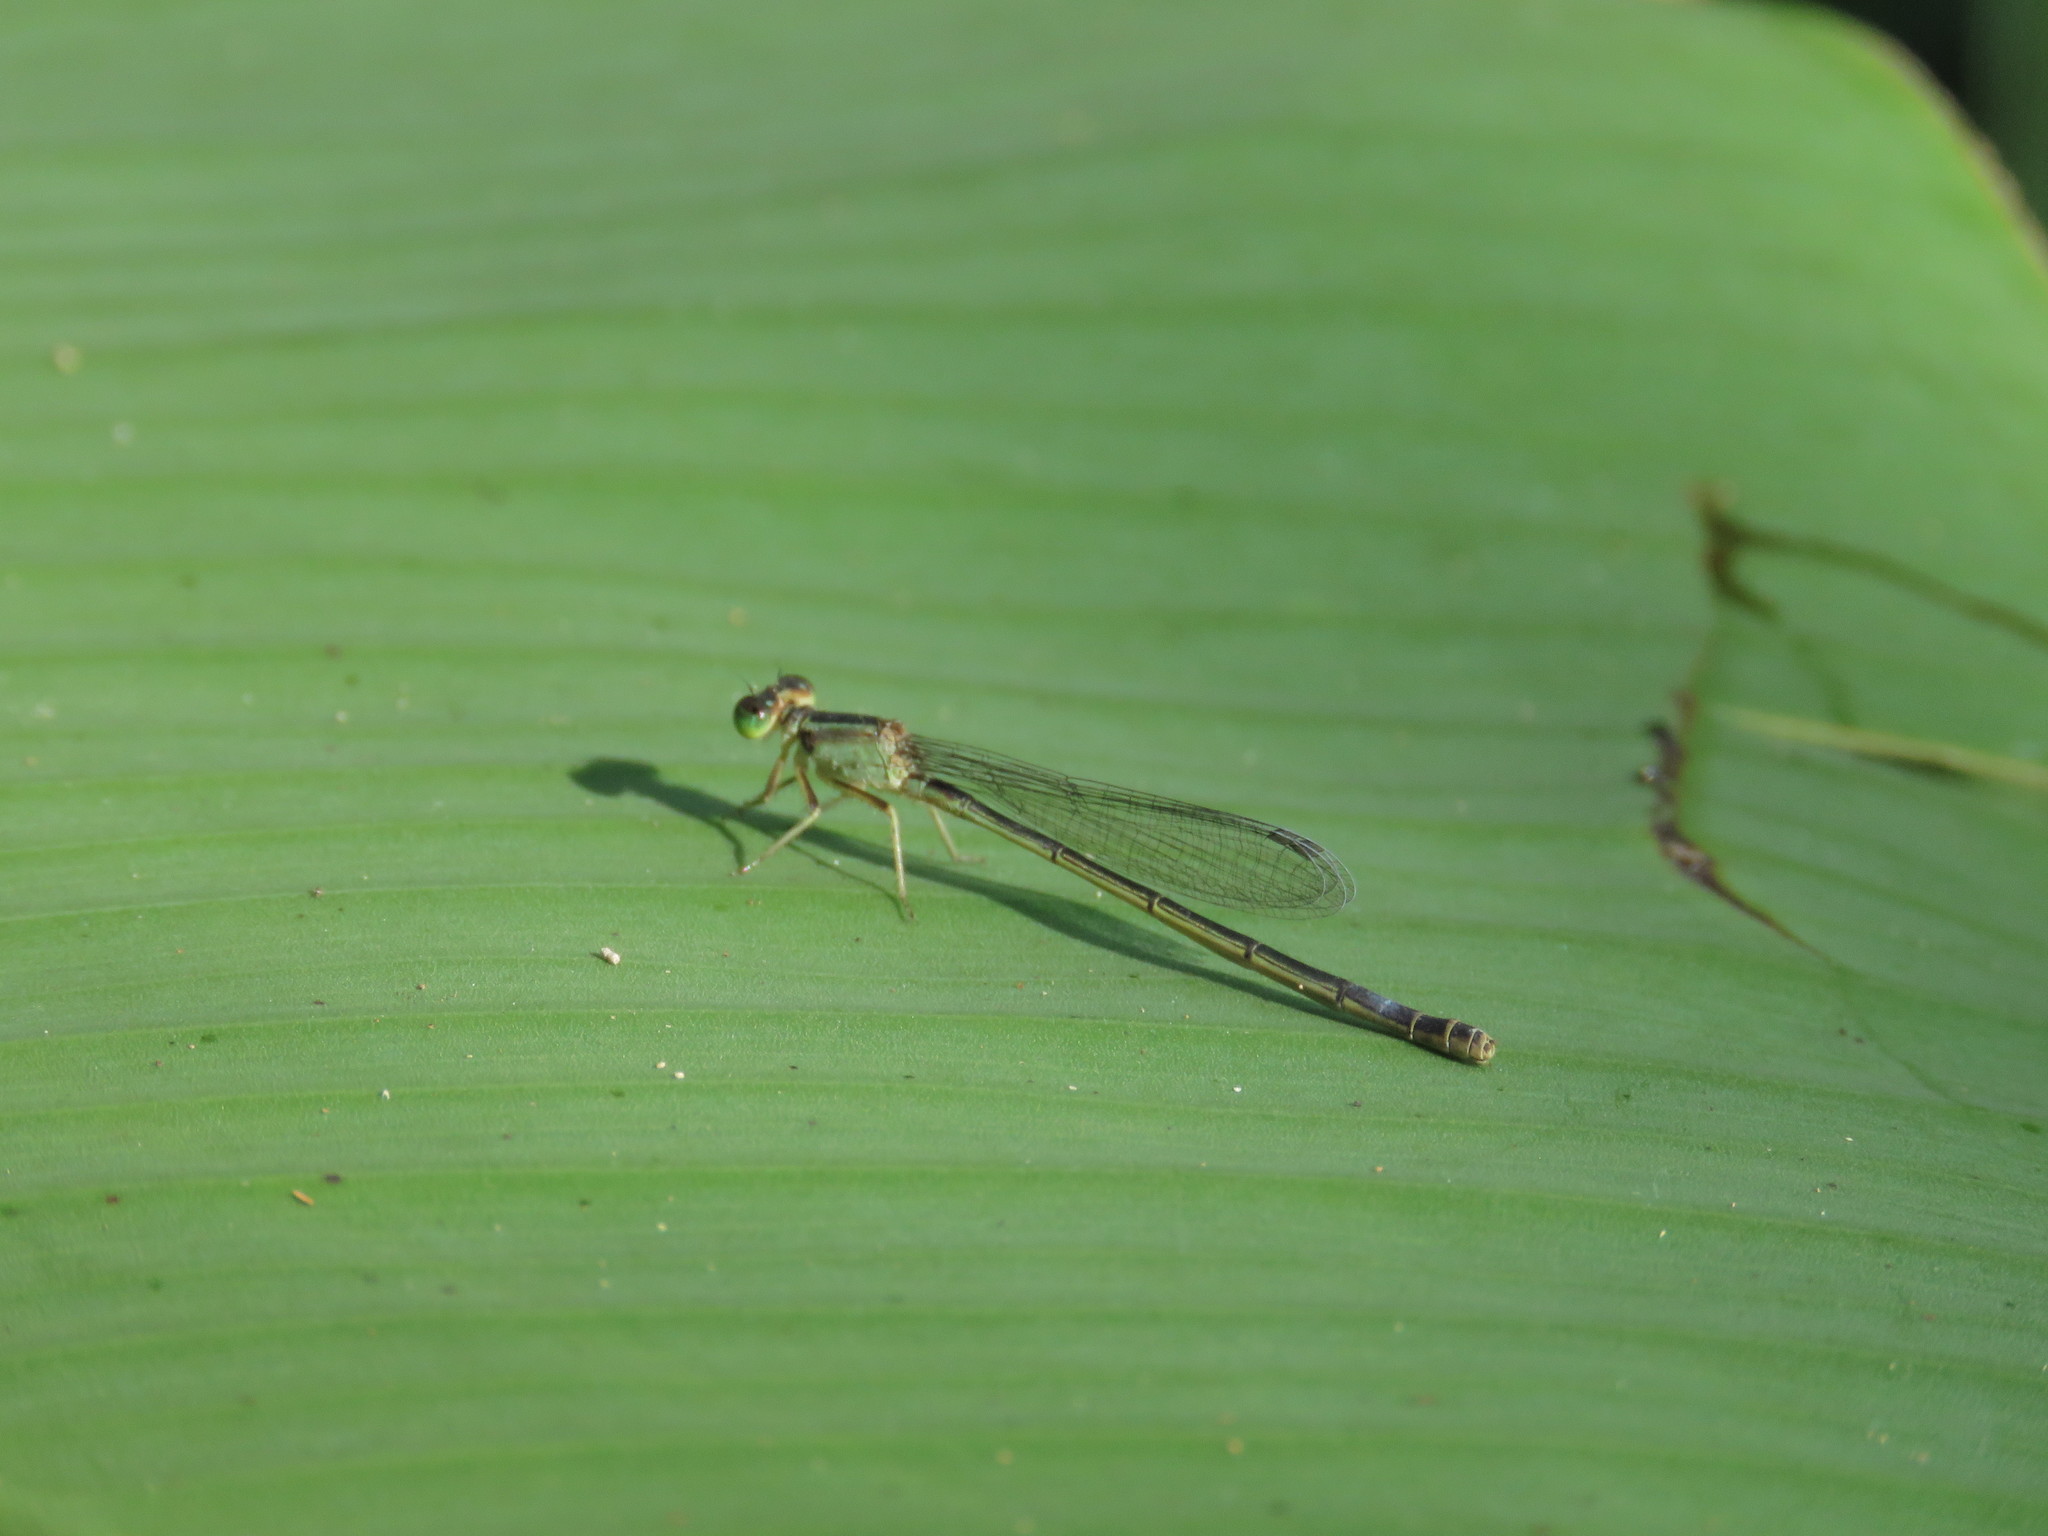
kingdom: Animalia
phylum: Arthropoda
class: Insecta
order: Odonata
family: Coenagrionidae
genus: Ischnura
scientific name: Ischnura senegalensis
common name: Tropical bluetail
